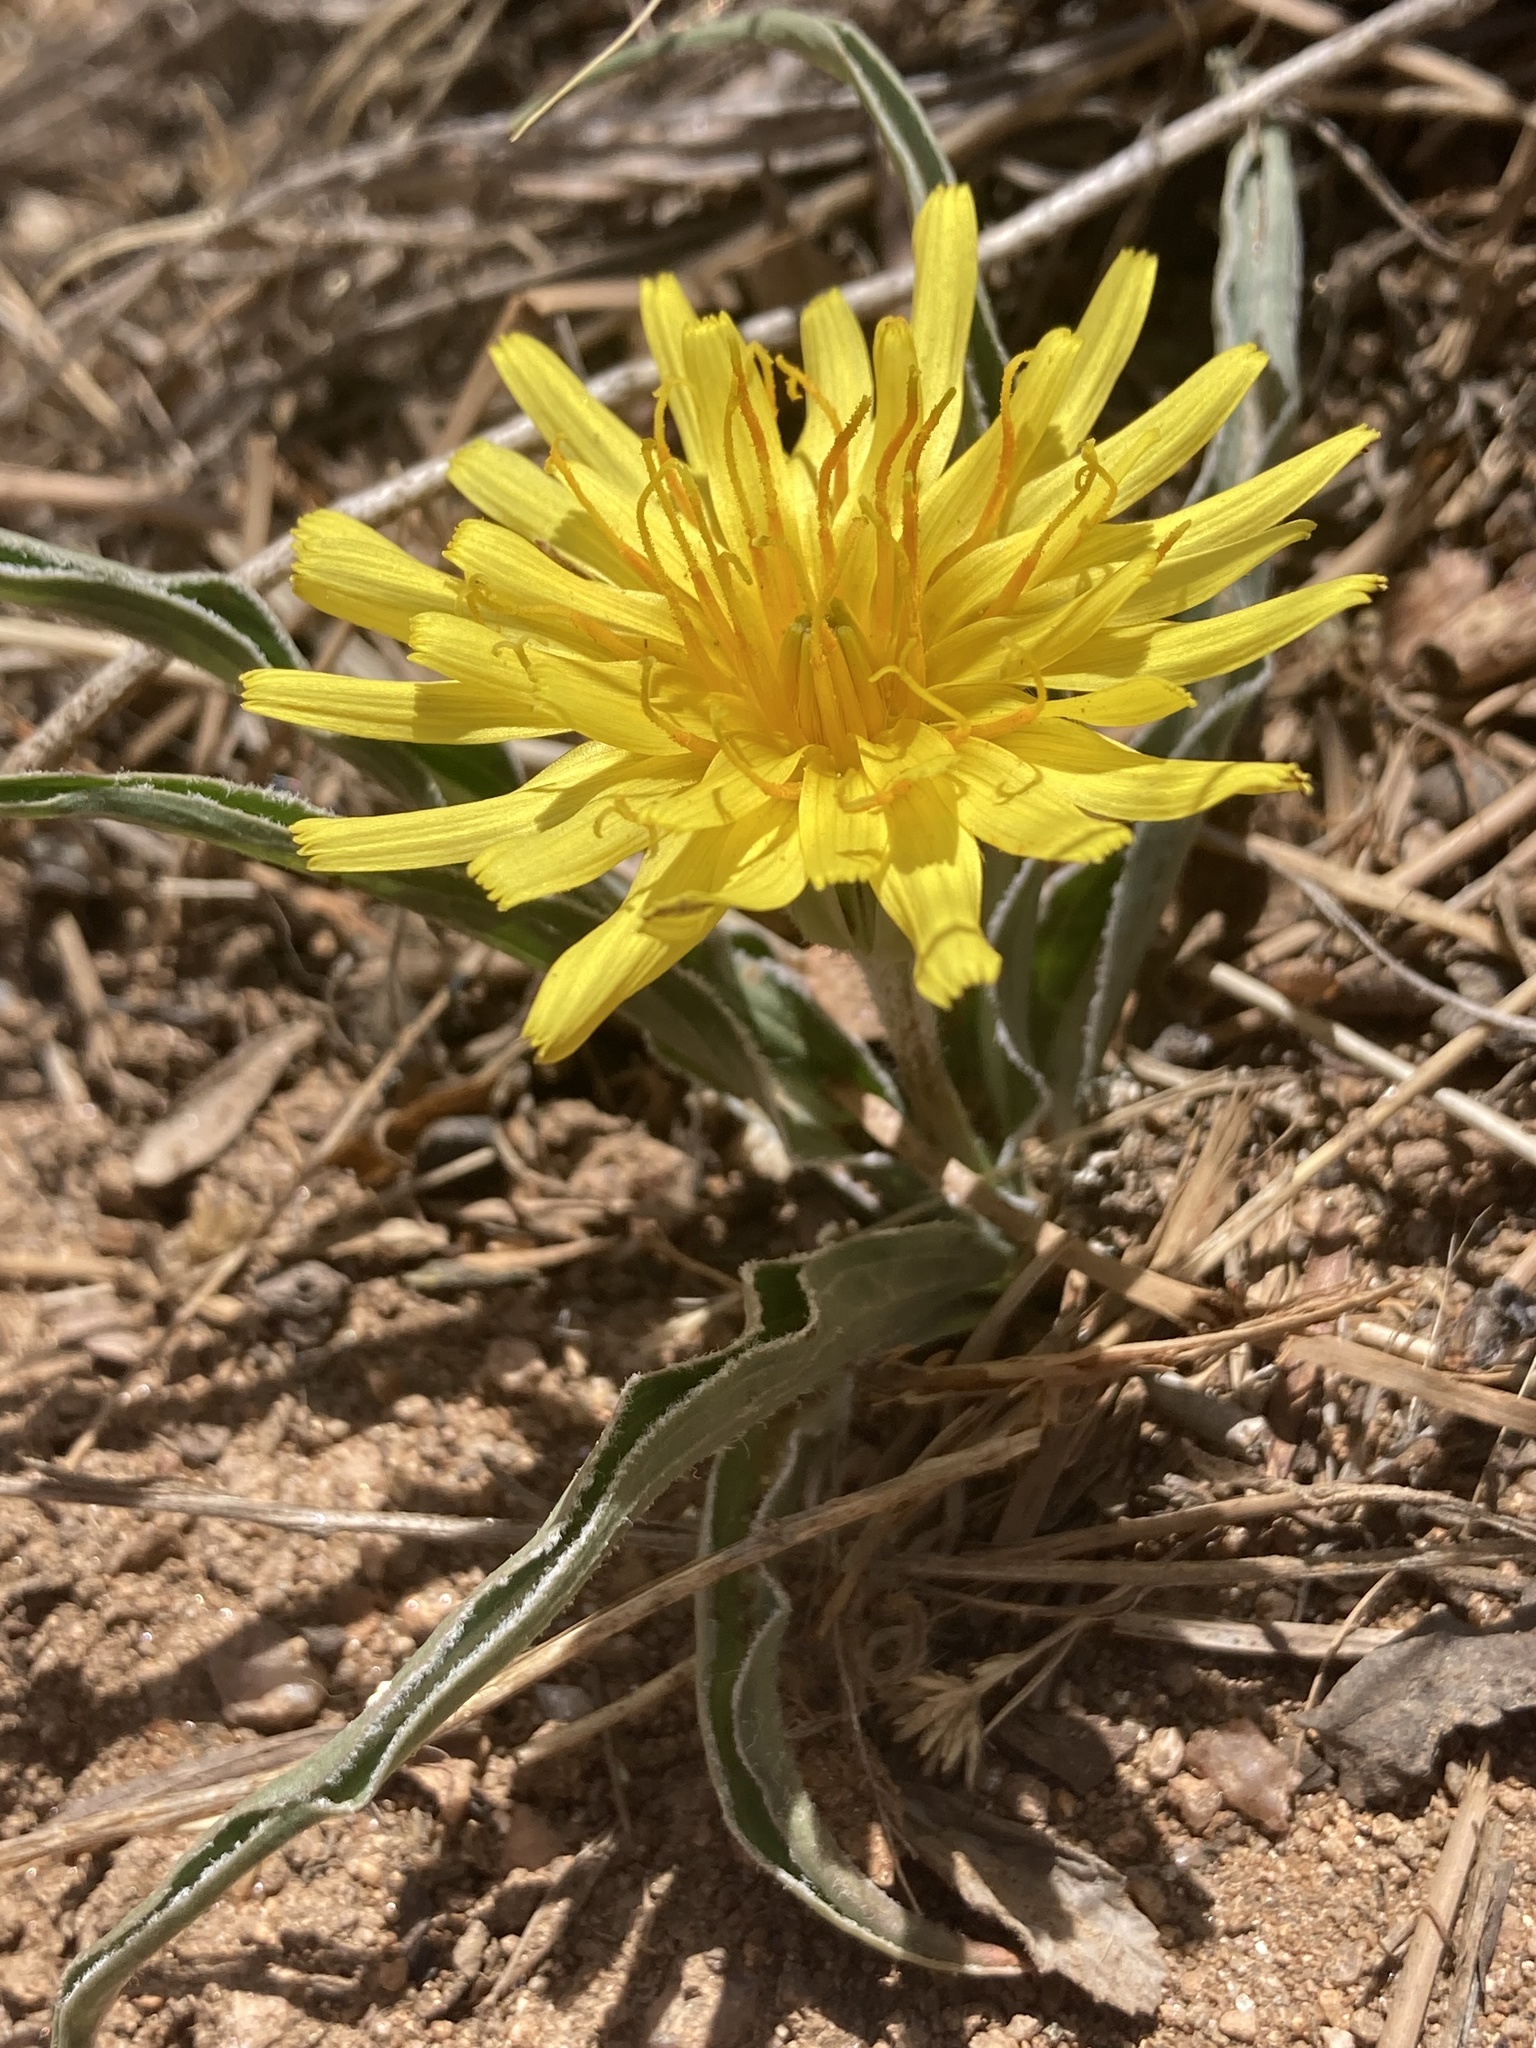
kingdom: Plantae
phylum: Tracheophyta
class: Magnoliopsida
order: Asterales
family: Asteraceae
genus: Microseris
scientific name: Microseris cuspidata
